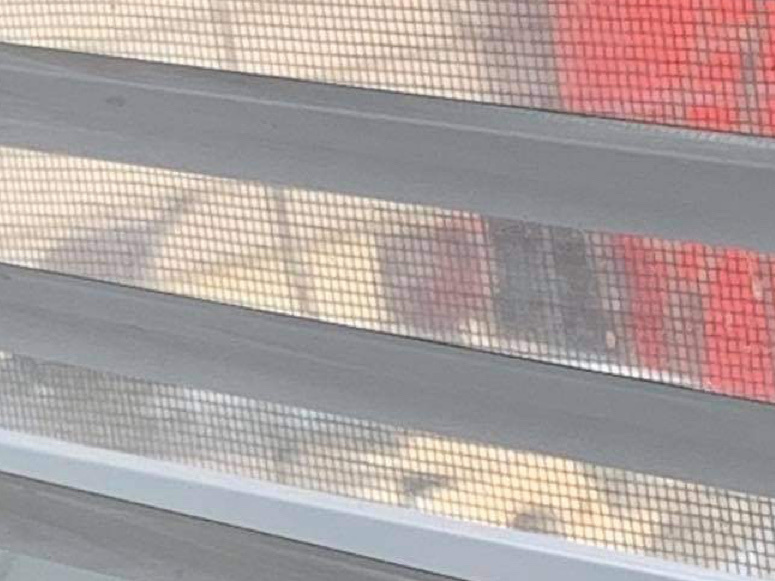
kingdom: Animalia
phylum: Chordata
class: Aves
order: Passeriformes
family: Fringillidae
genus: Haemorhous
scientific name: Haemorhous mexicanus
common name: House finch
